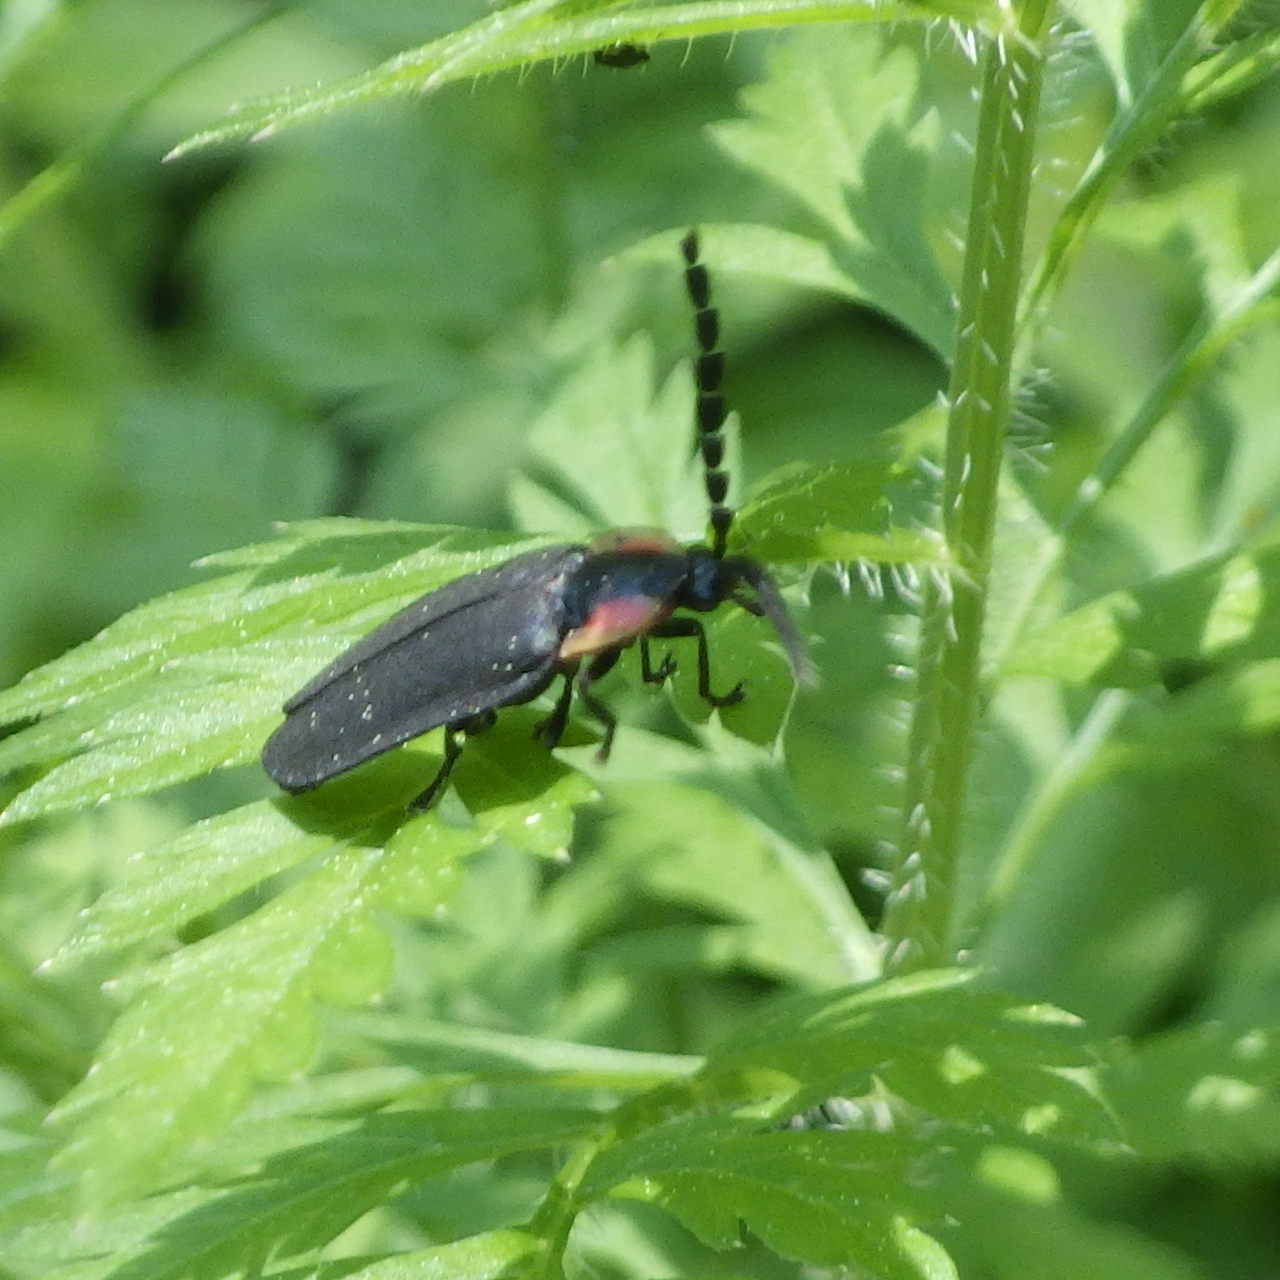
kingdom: Animalia
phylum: Arthropoda
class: Insecta
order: Coleoptera
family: Lampyridae
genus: Lucidota
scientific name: Lucidota atra
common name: Black firefly
